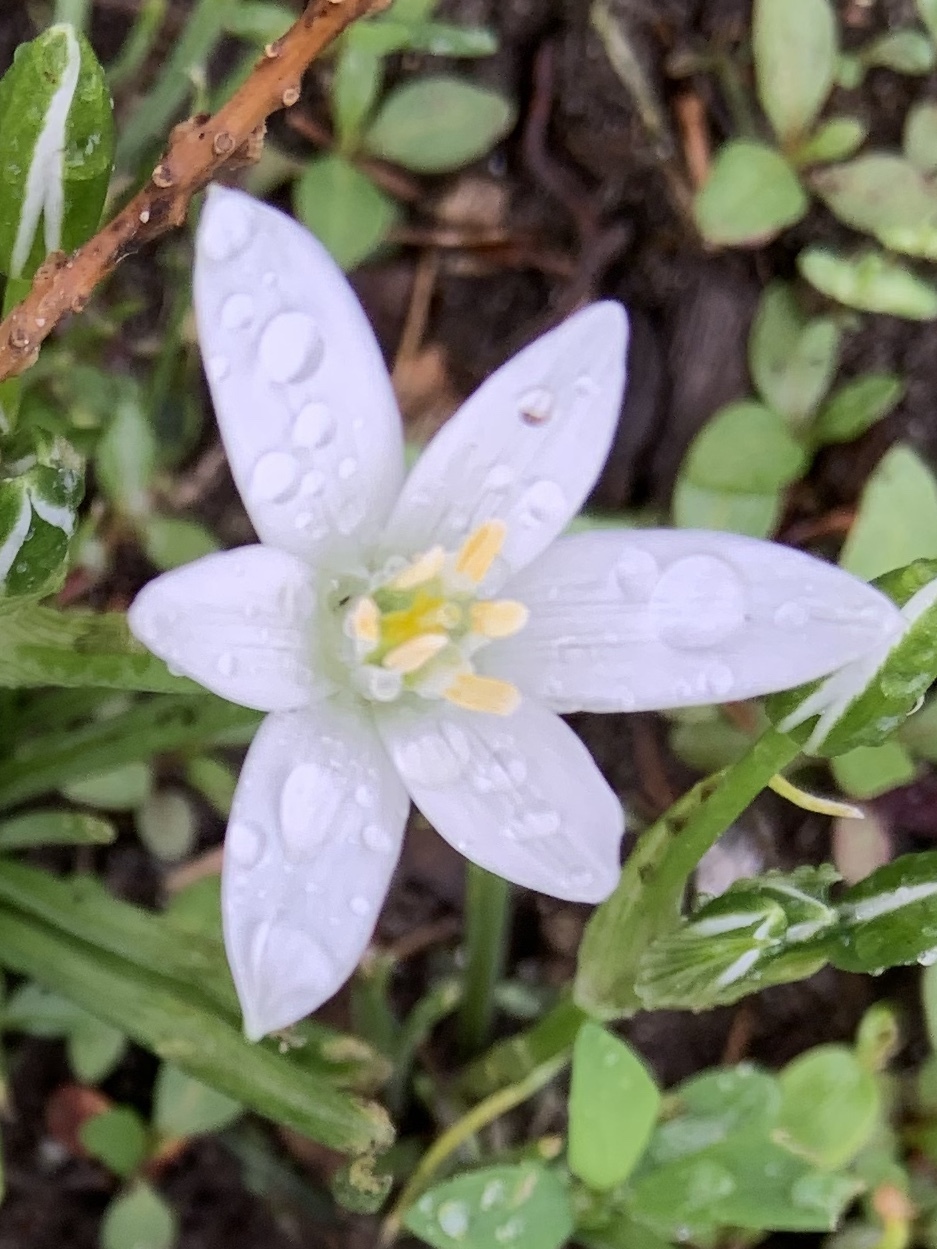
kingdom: Plantae
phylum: Tracheophyta
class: Liliopsida
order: Asparagales
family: Asparagaceae
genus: Ornithogalum
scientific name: Ornithogalum umbellatum
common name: Garden star-of-bethlehem
